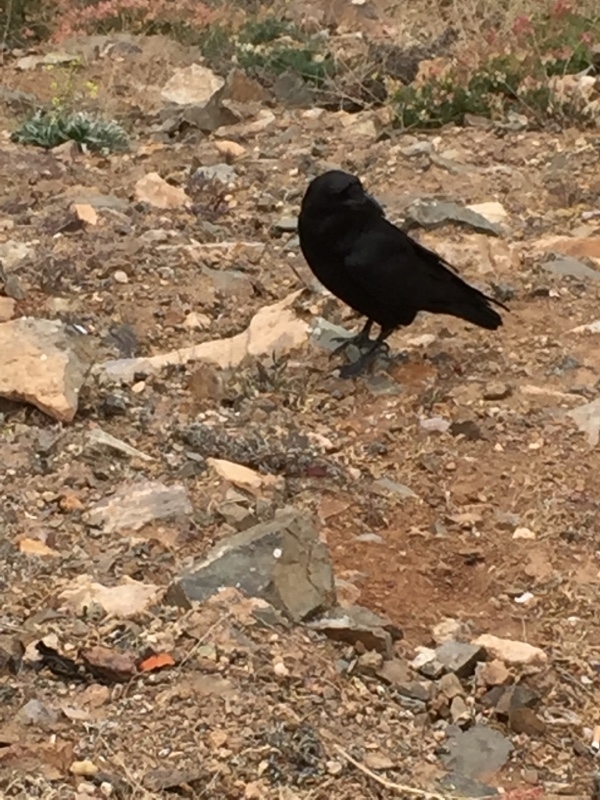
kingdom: Animalia
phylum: Chordata
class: Aves
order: Passeriformes
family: Corvidae
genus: Corvus
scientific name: Corvus corax
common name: Common raven
